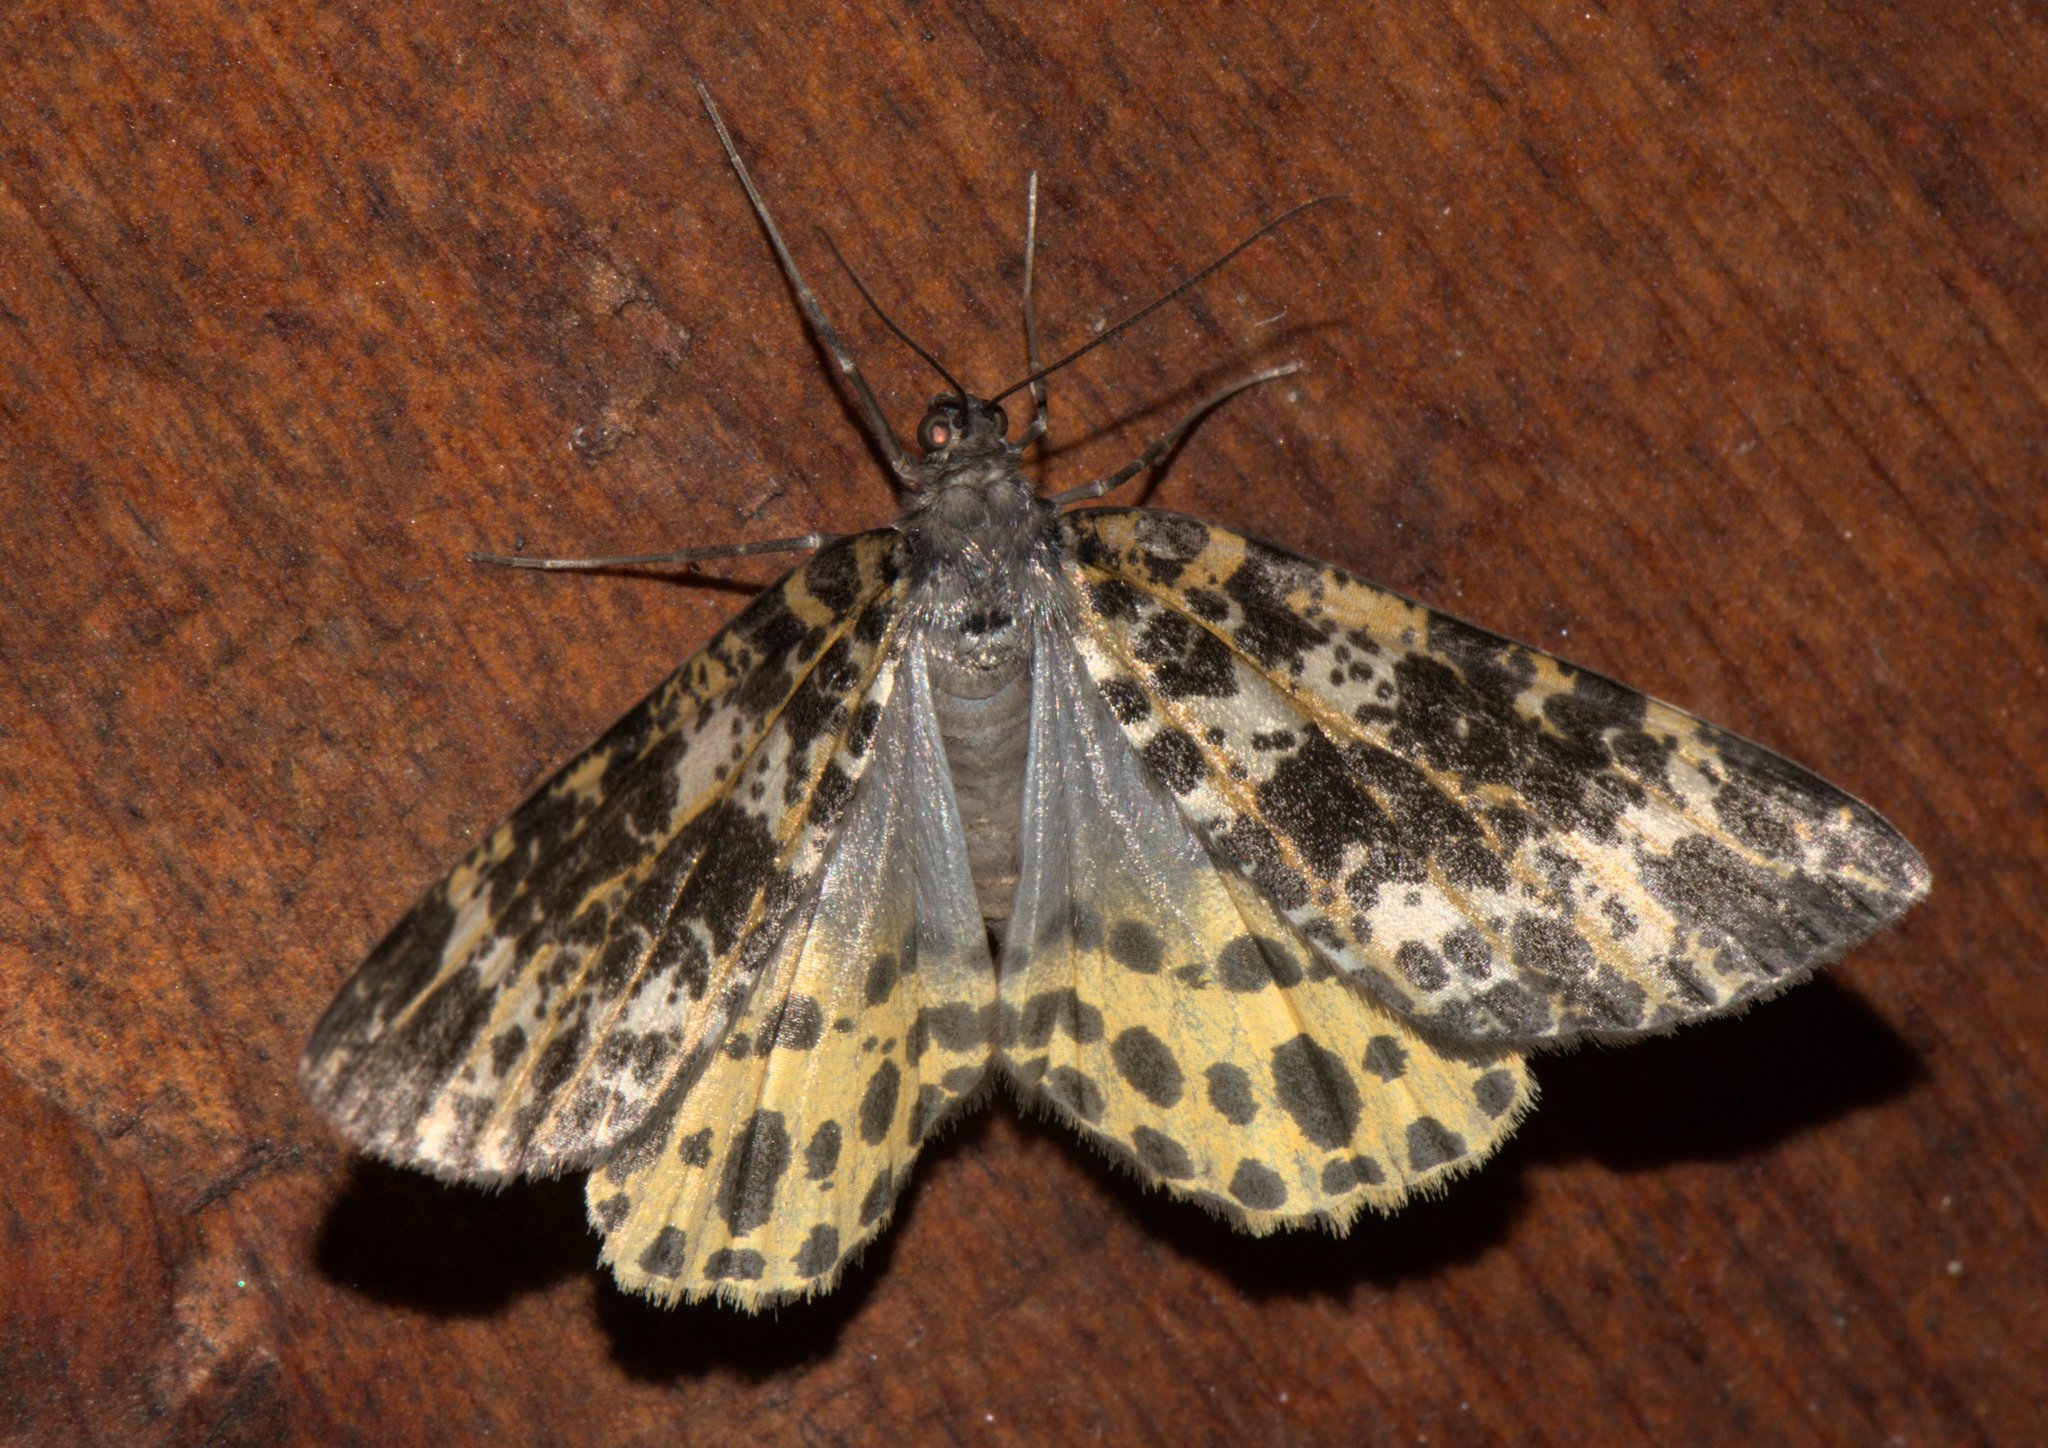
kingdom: Animalia
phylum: Arthropoda
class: Insecta
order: Lepidoptera
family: Geometridae
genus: Arichanna
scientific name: Arichanna sparsa
